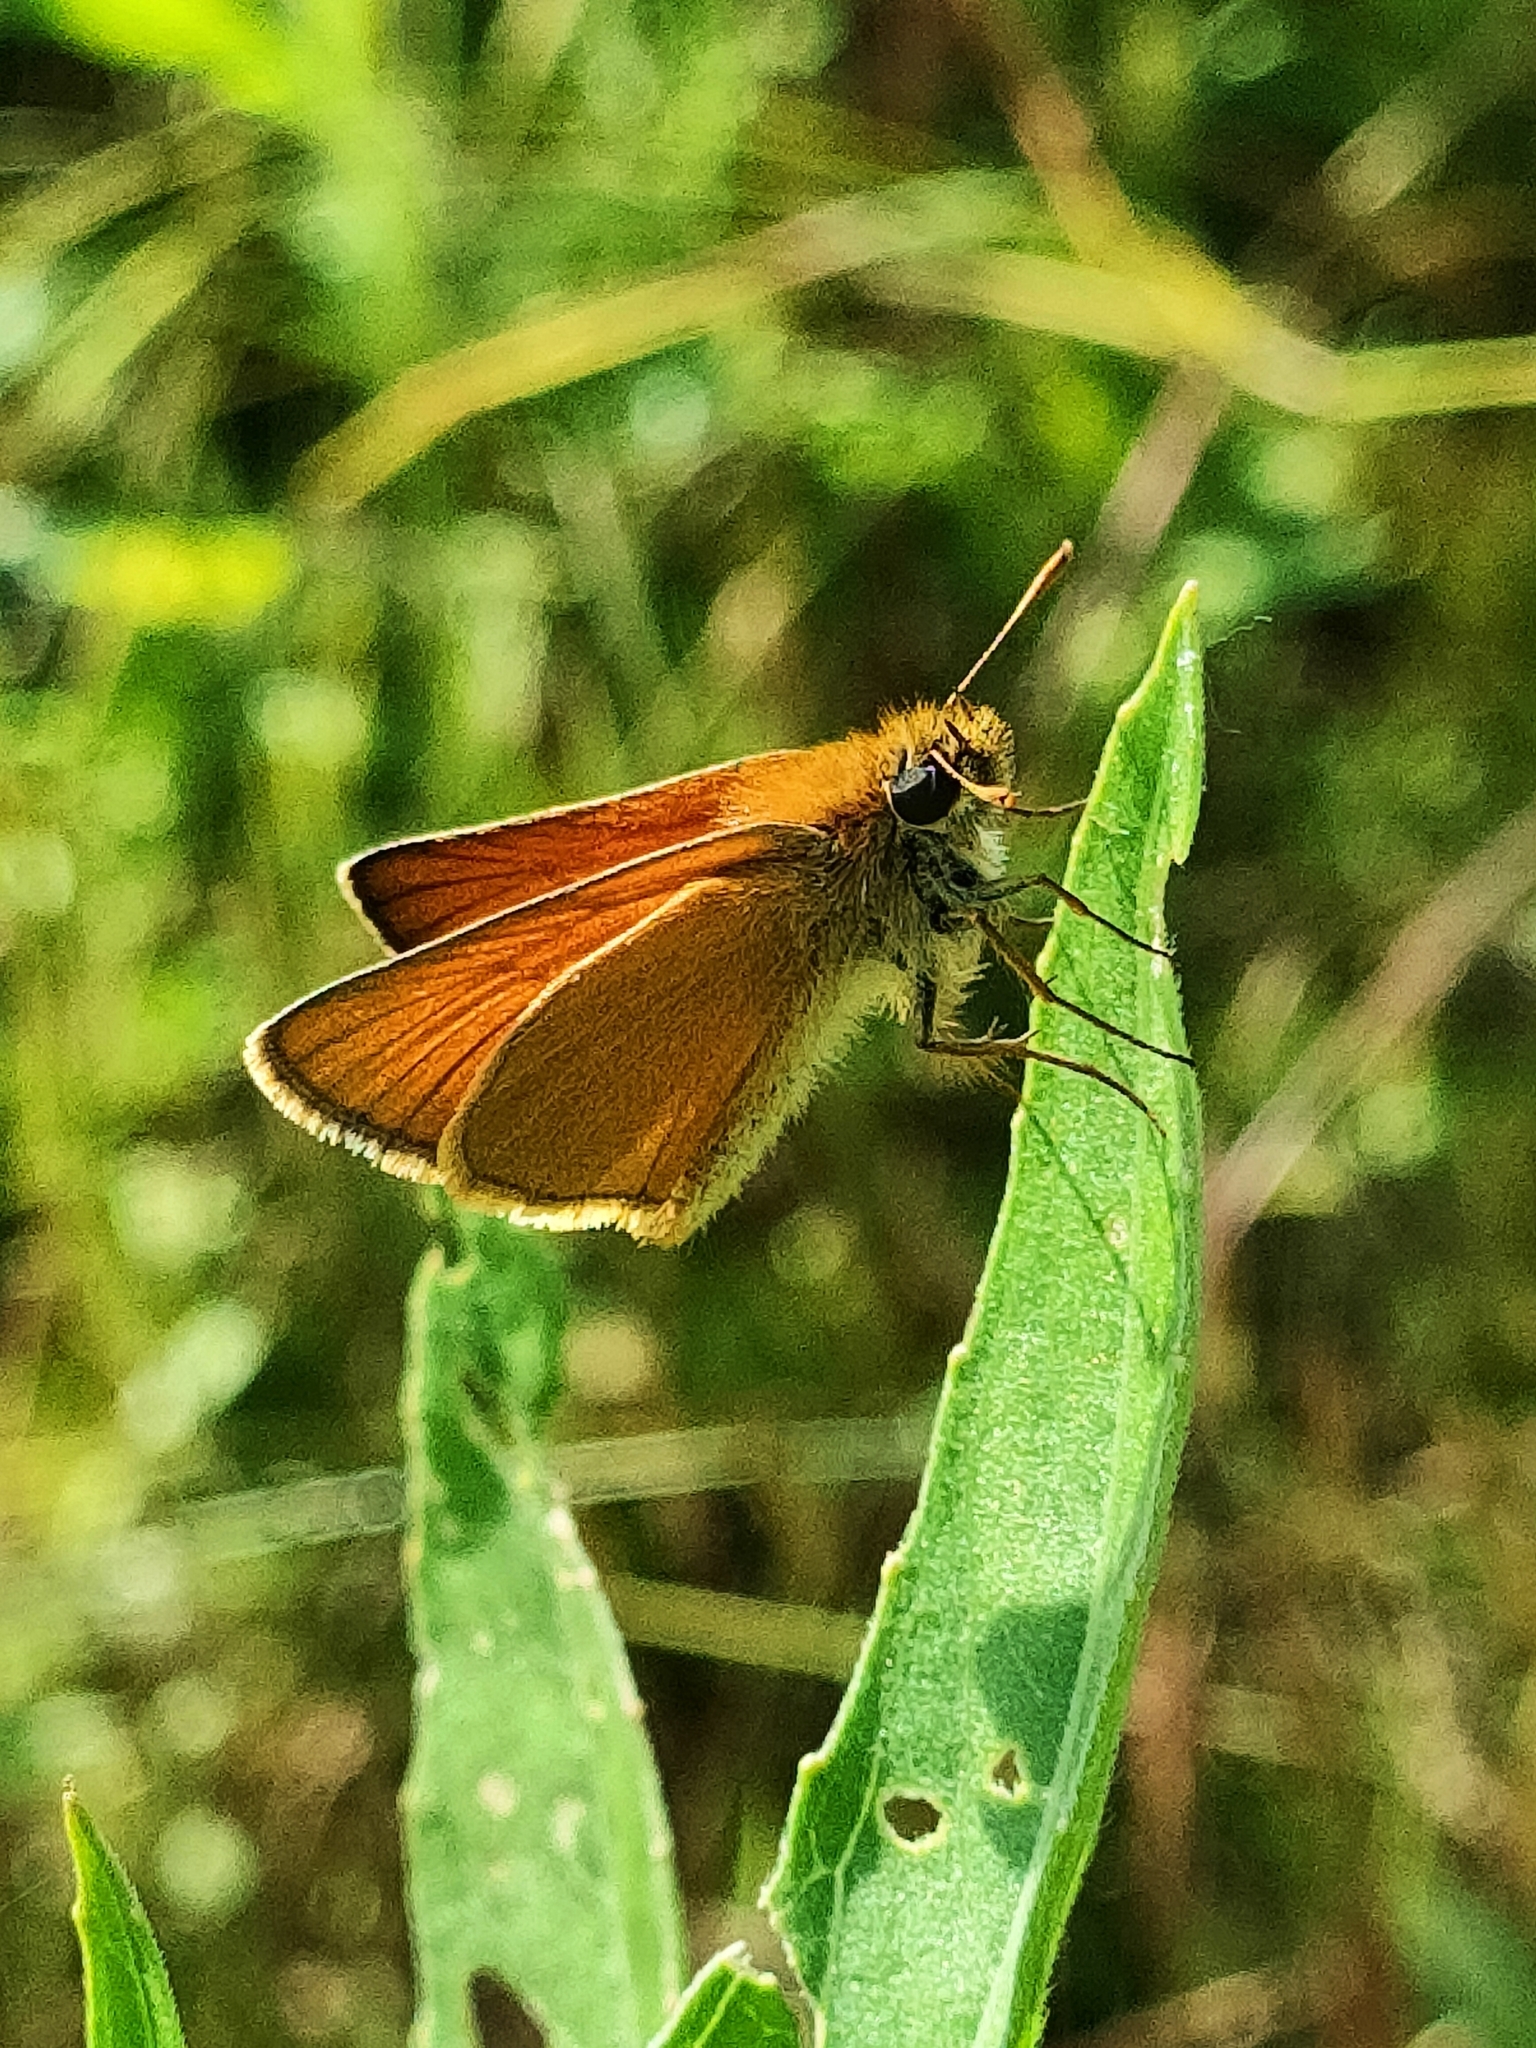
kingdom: Animalia
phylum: Arthropoda
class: Insecta
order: Lepidoptera
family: Hesperiidae
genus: Thymelicus
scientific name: Thymelicus sylvestris
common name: Small skipper
